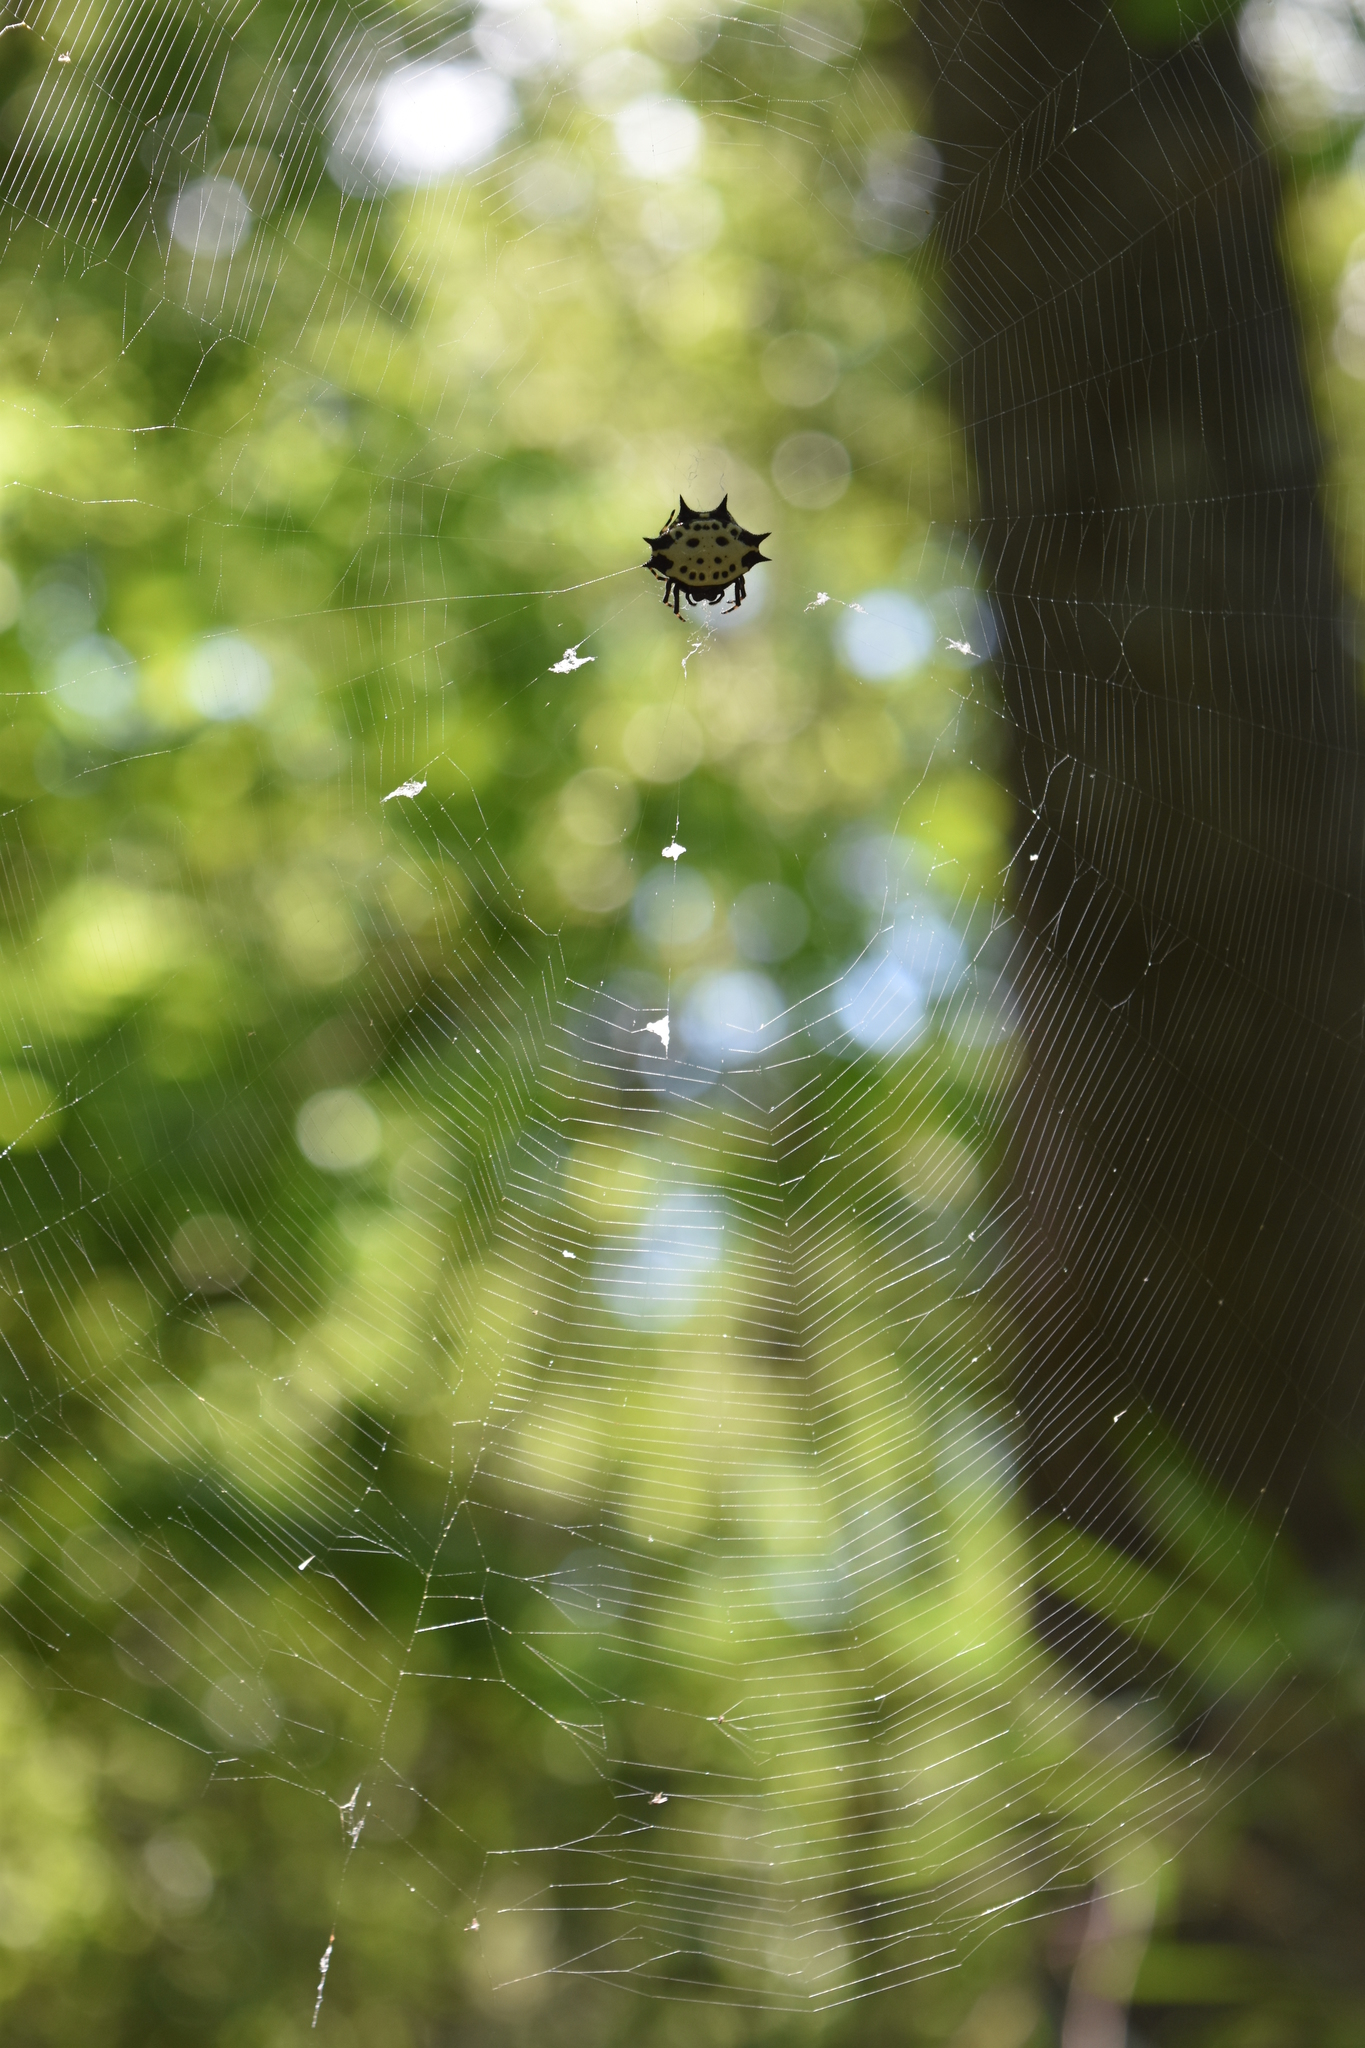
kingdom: Animalia
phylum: Arthropoda
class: Arachnida
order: Araneae
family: Araneidae
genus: Gasteracantha
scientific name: Gasteracantha cancriformis
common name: Orb weavers
